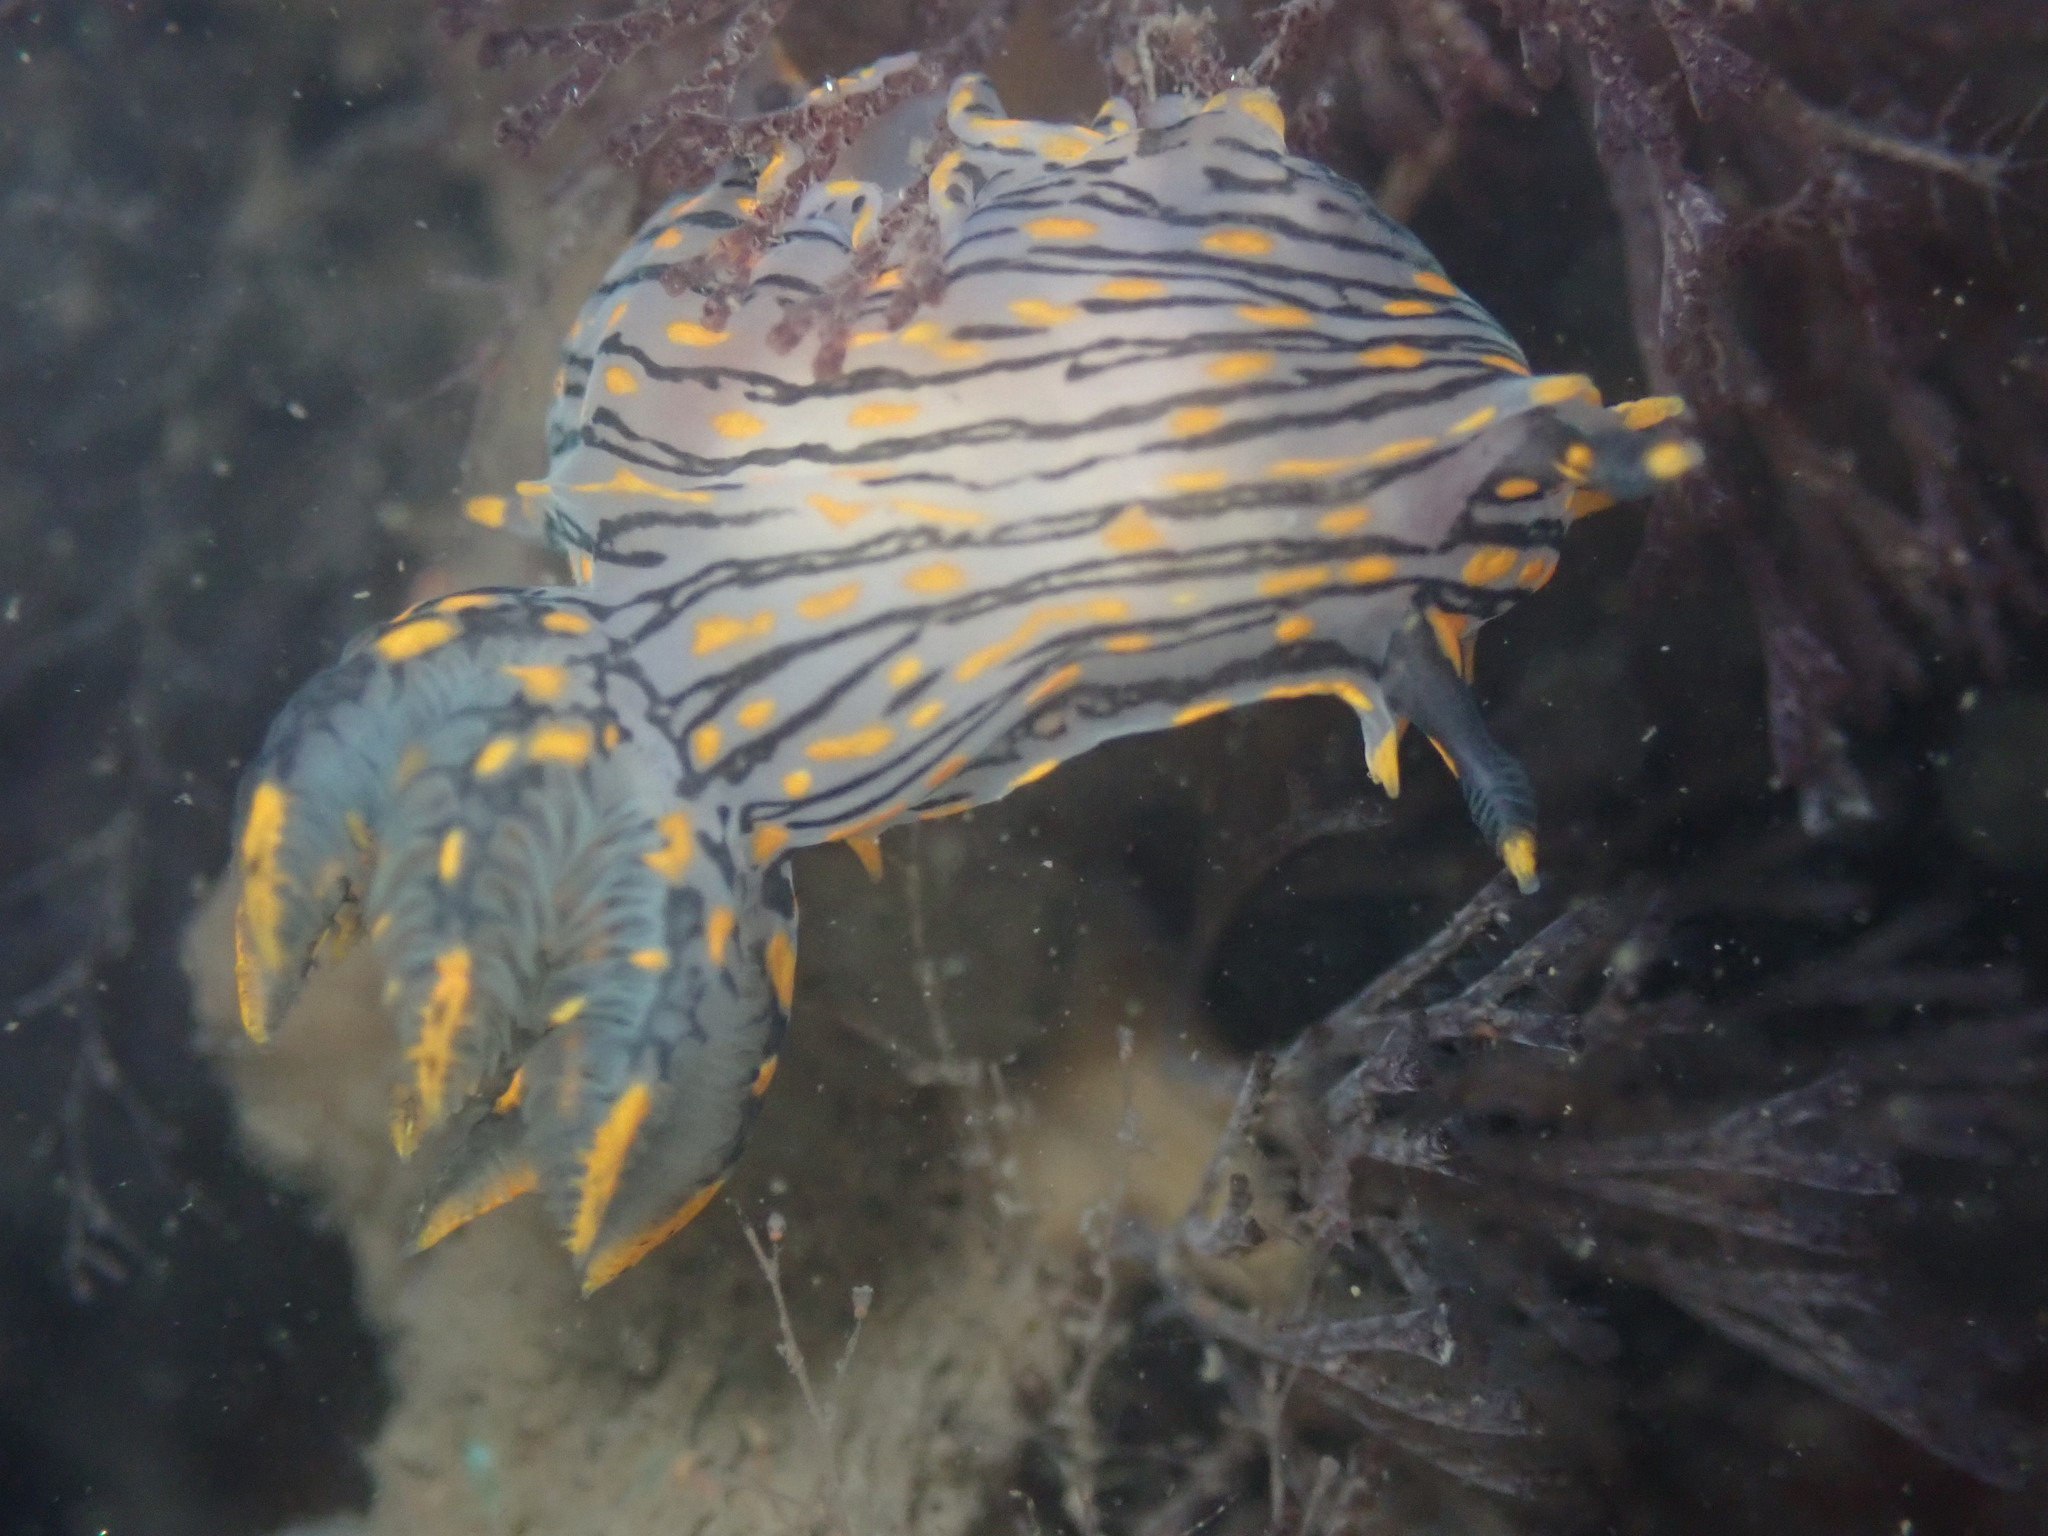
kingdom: Animalia
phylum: Mollusca
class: Gastropoda
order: Nudibranchia
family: Polyceridae
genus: Polycera
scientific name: Polycera atra
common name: Orange-spike polycera
